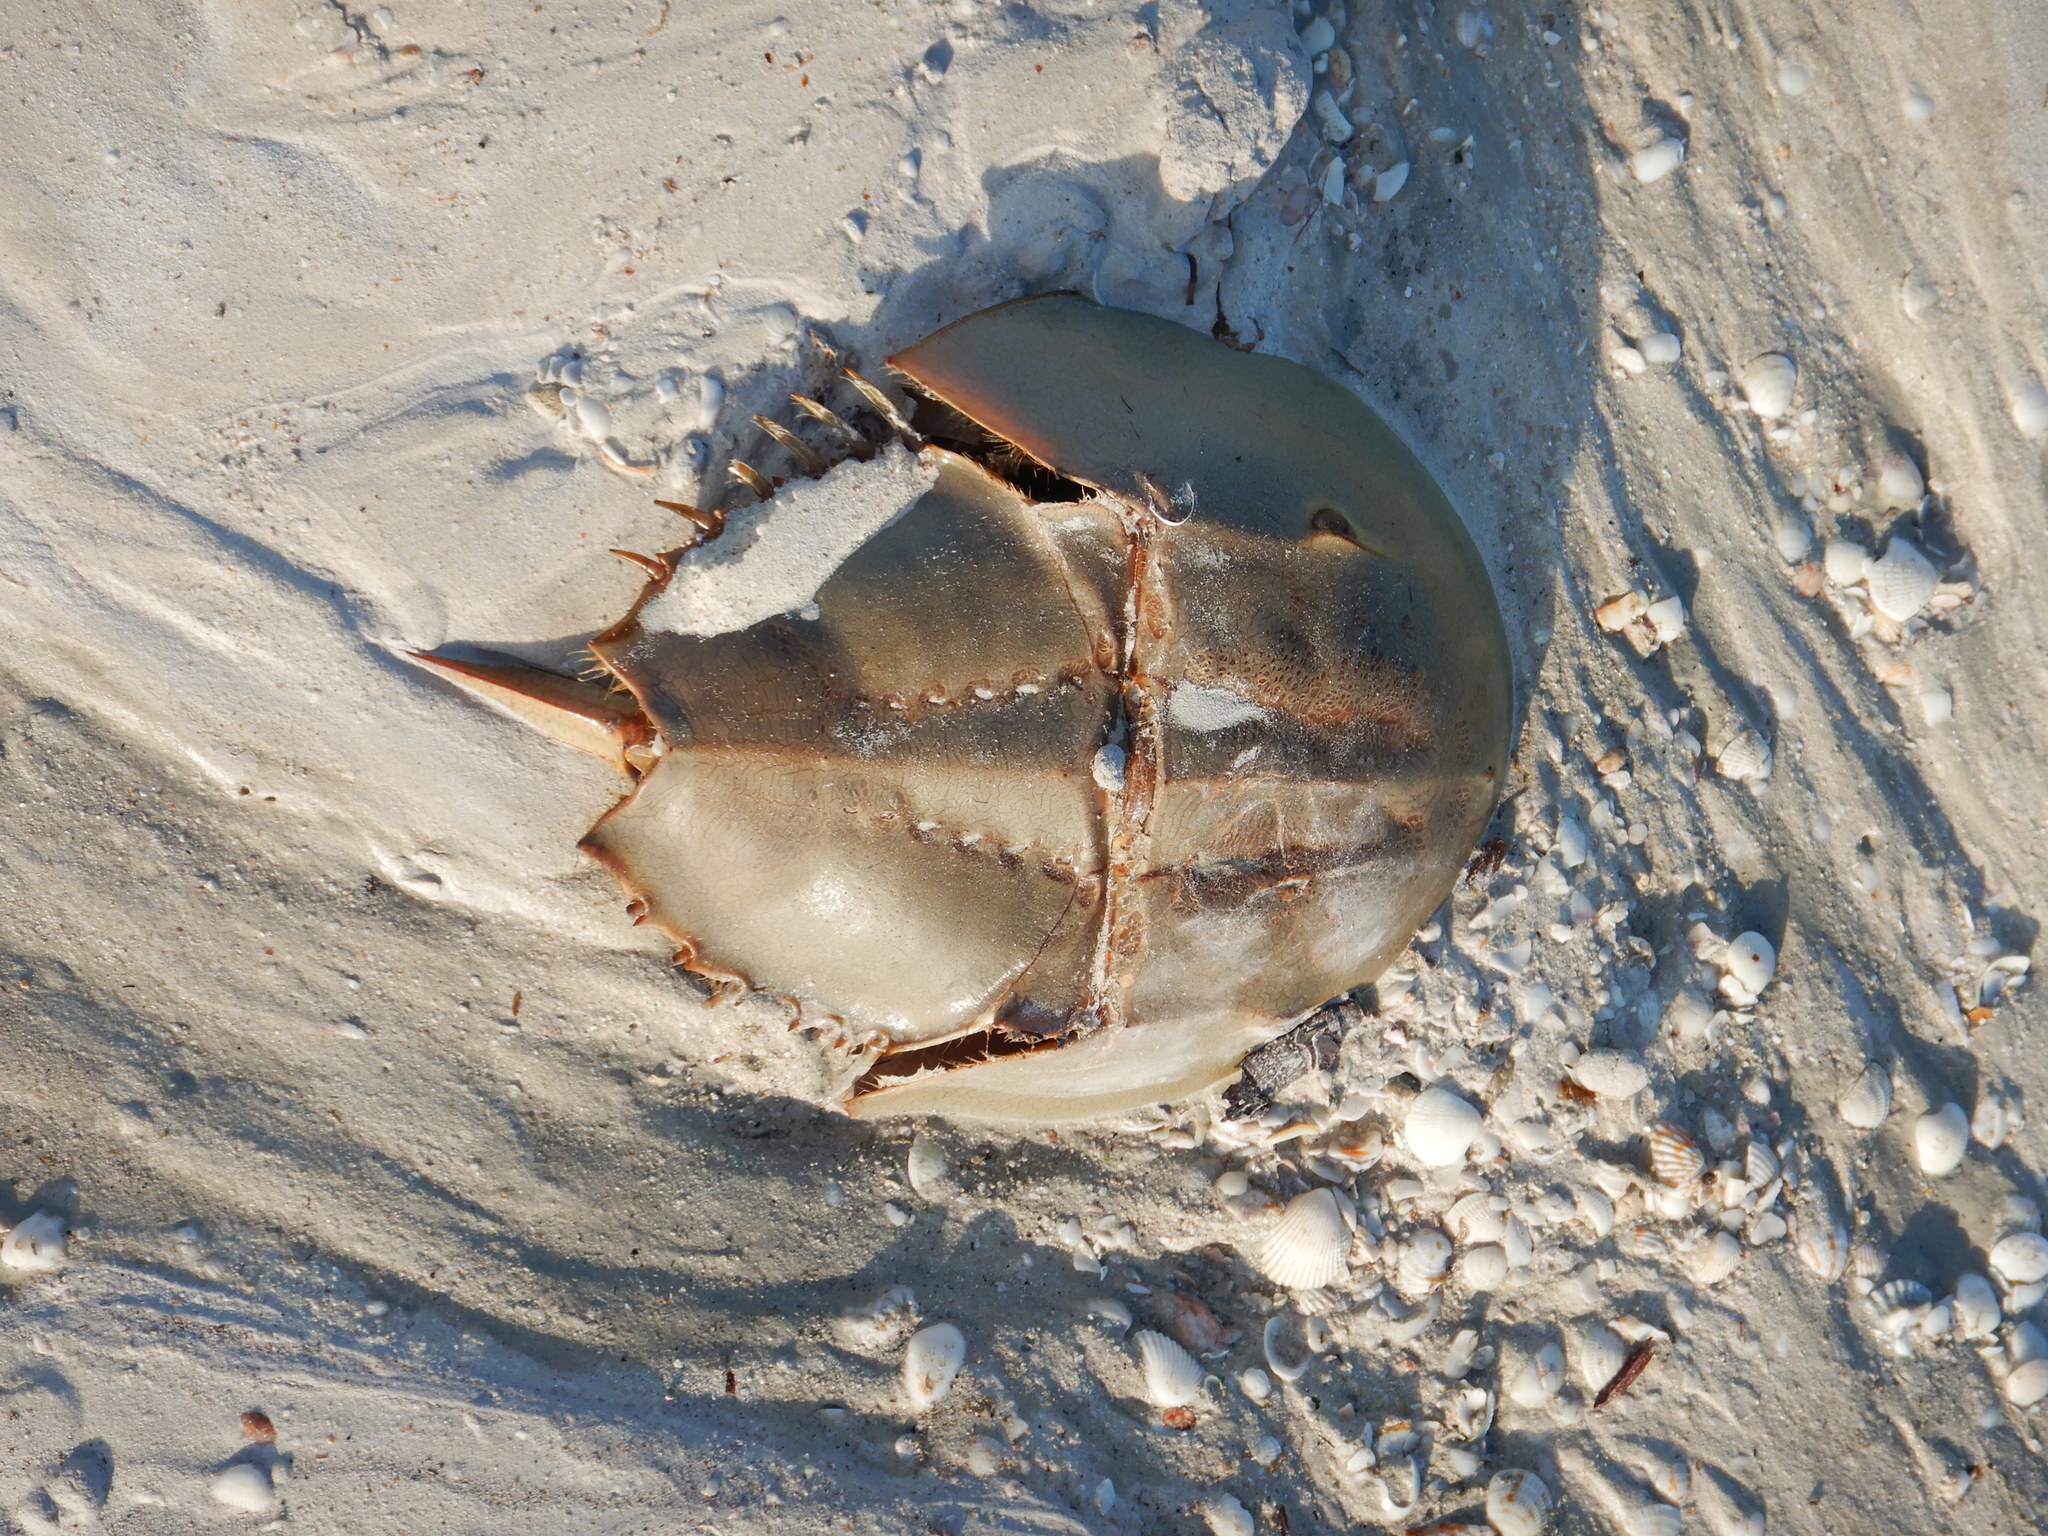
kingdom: Animalia
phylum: Arthropoda
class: Merostomata
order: Xiphosurida
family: Limulidae
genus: Limulus
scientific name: Limulus polyphemus
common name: Horseshoe crab
